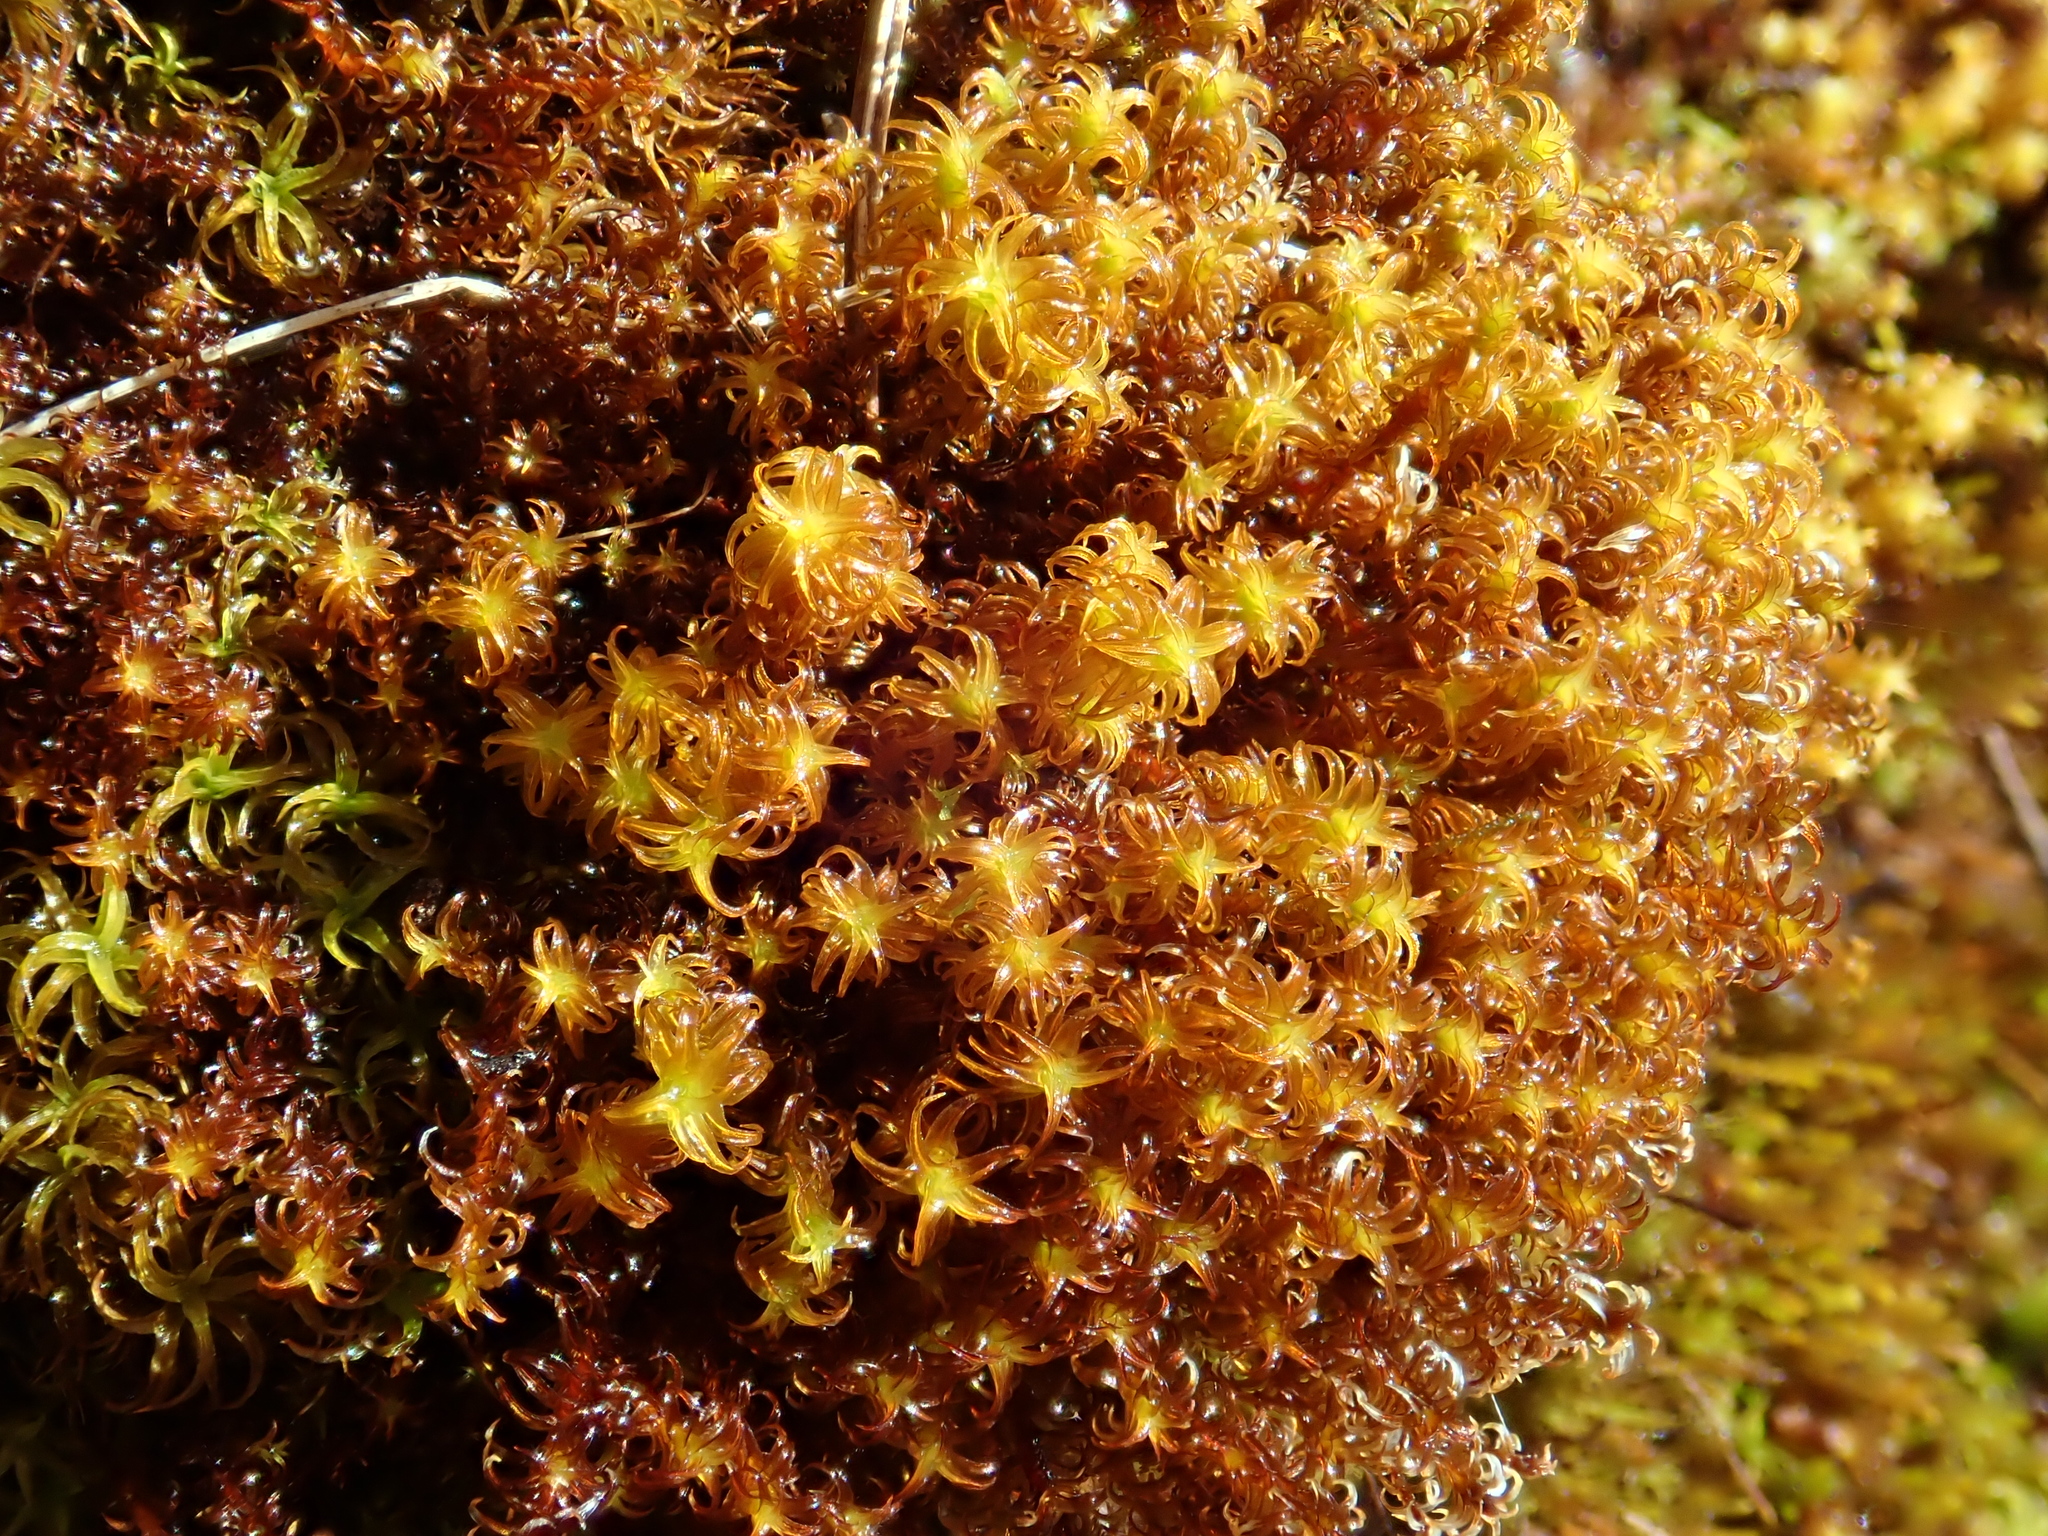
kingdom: Plantae
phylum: Bryophyta
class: Bryopsida
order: Pottiales
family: Pottiaceae
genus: Geheebia
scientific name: Geheebia ferruginea
